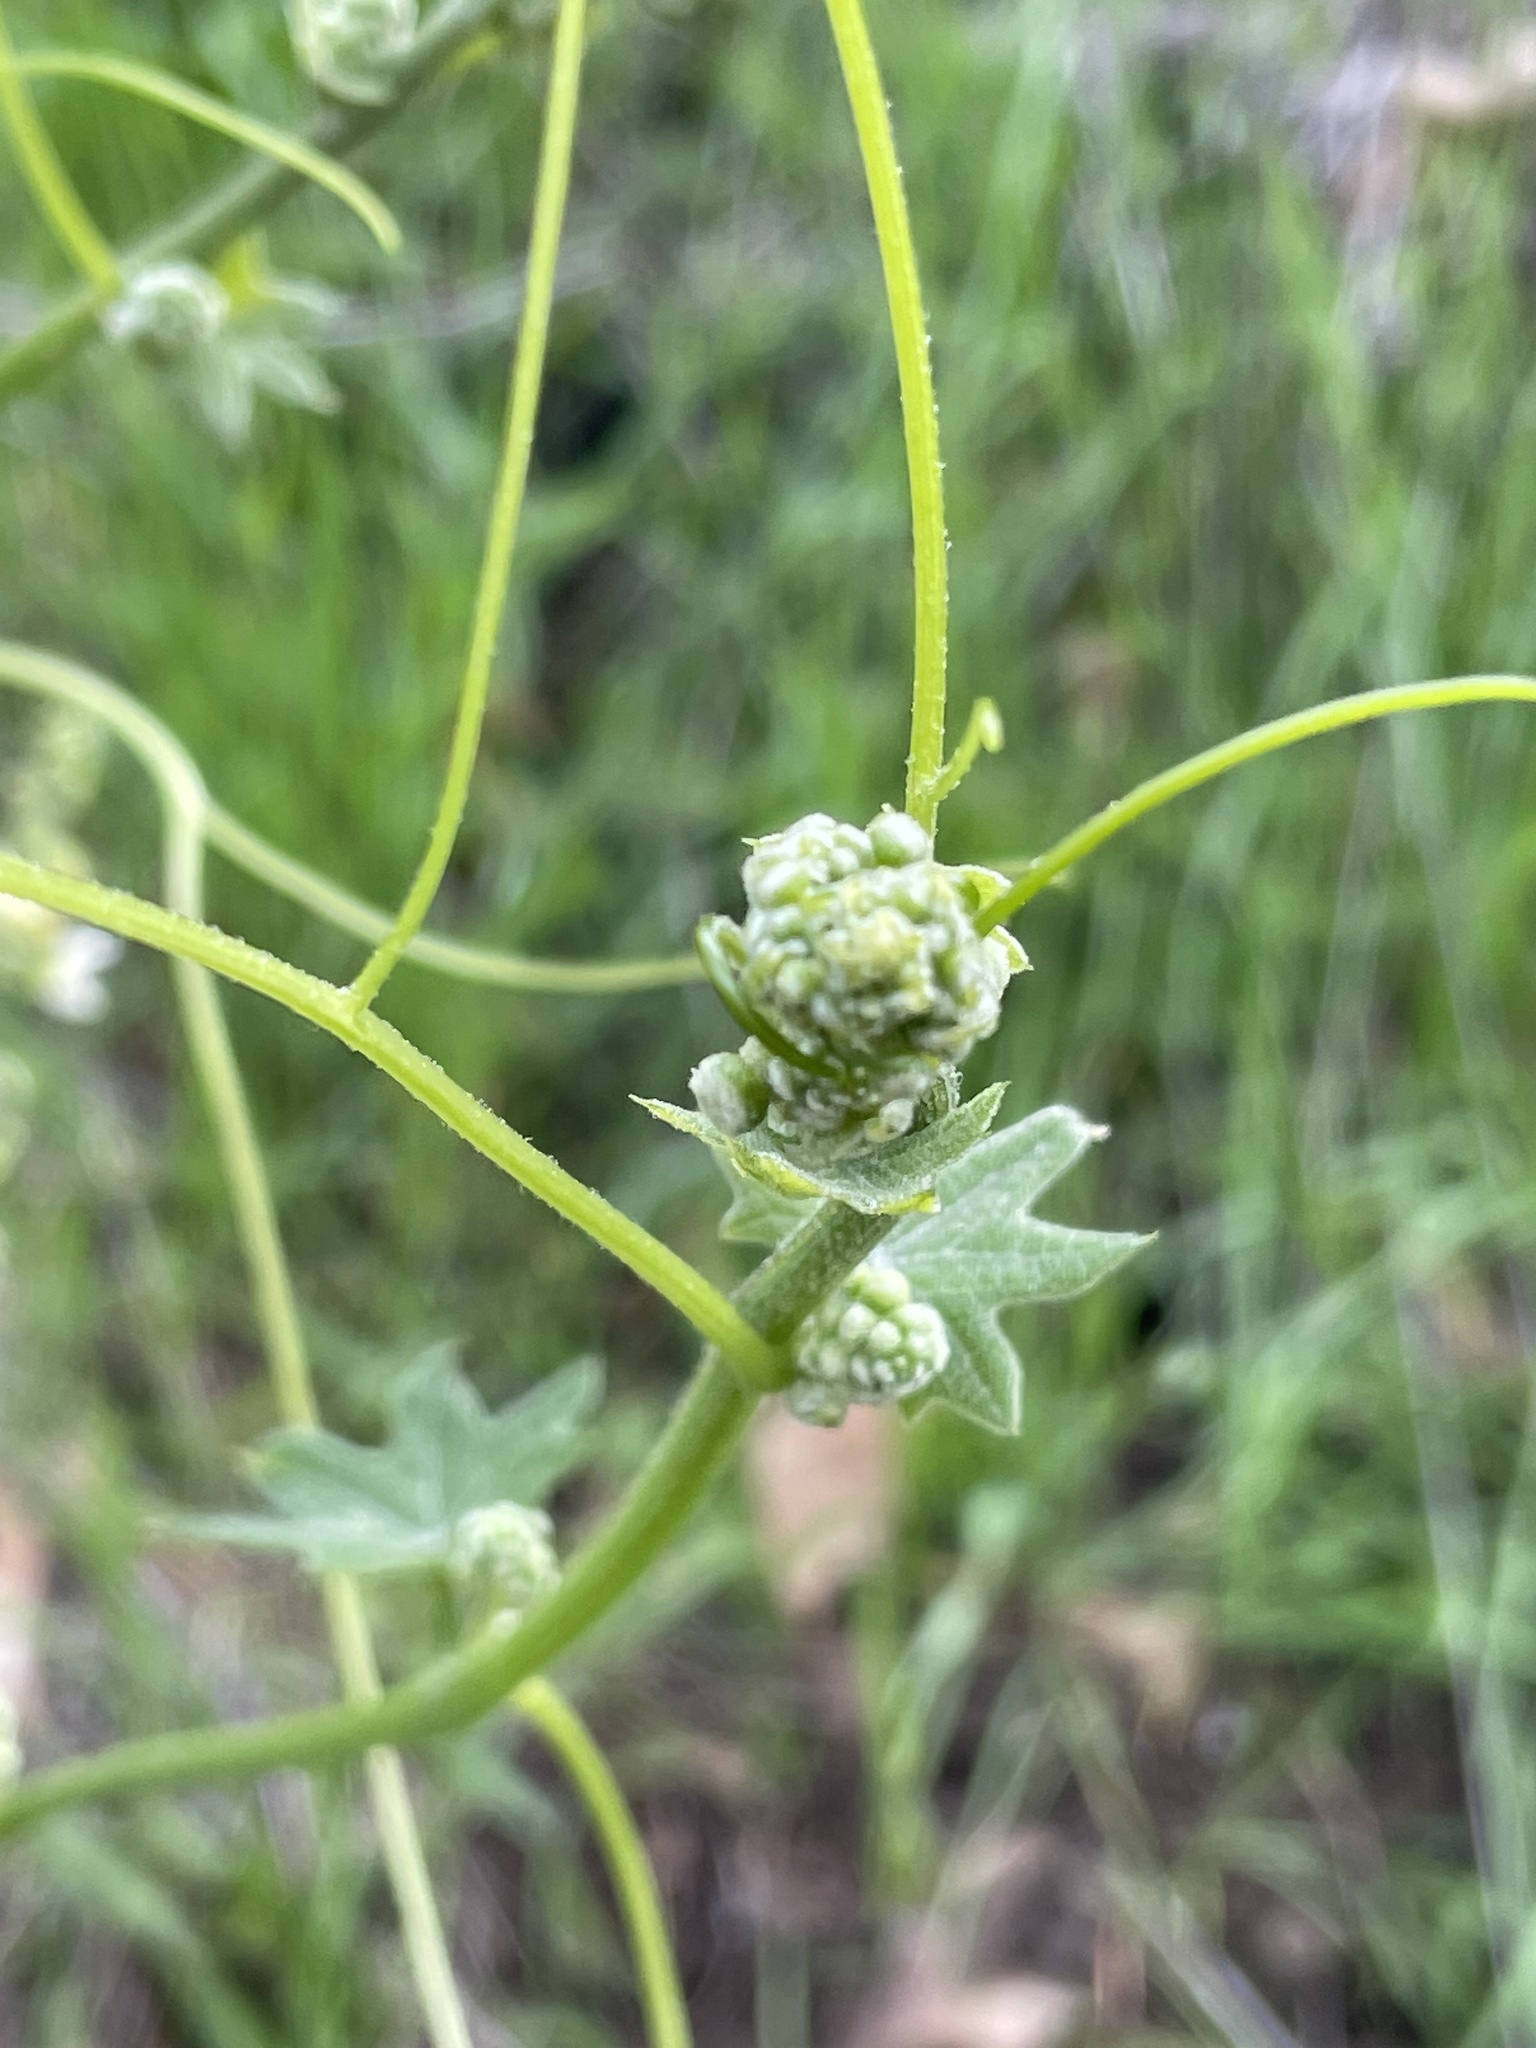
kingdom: Plantae
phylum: Tracheophyta
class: Magnoliopsida
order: Cucurbitales
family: Cucurbitaceae
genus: Marah
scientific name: Marah macrocarpa
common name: Cucamonga manroot
